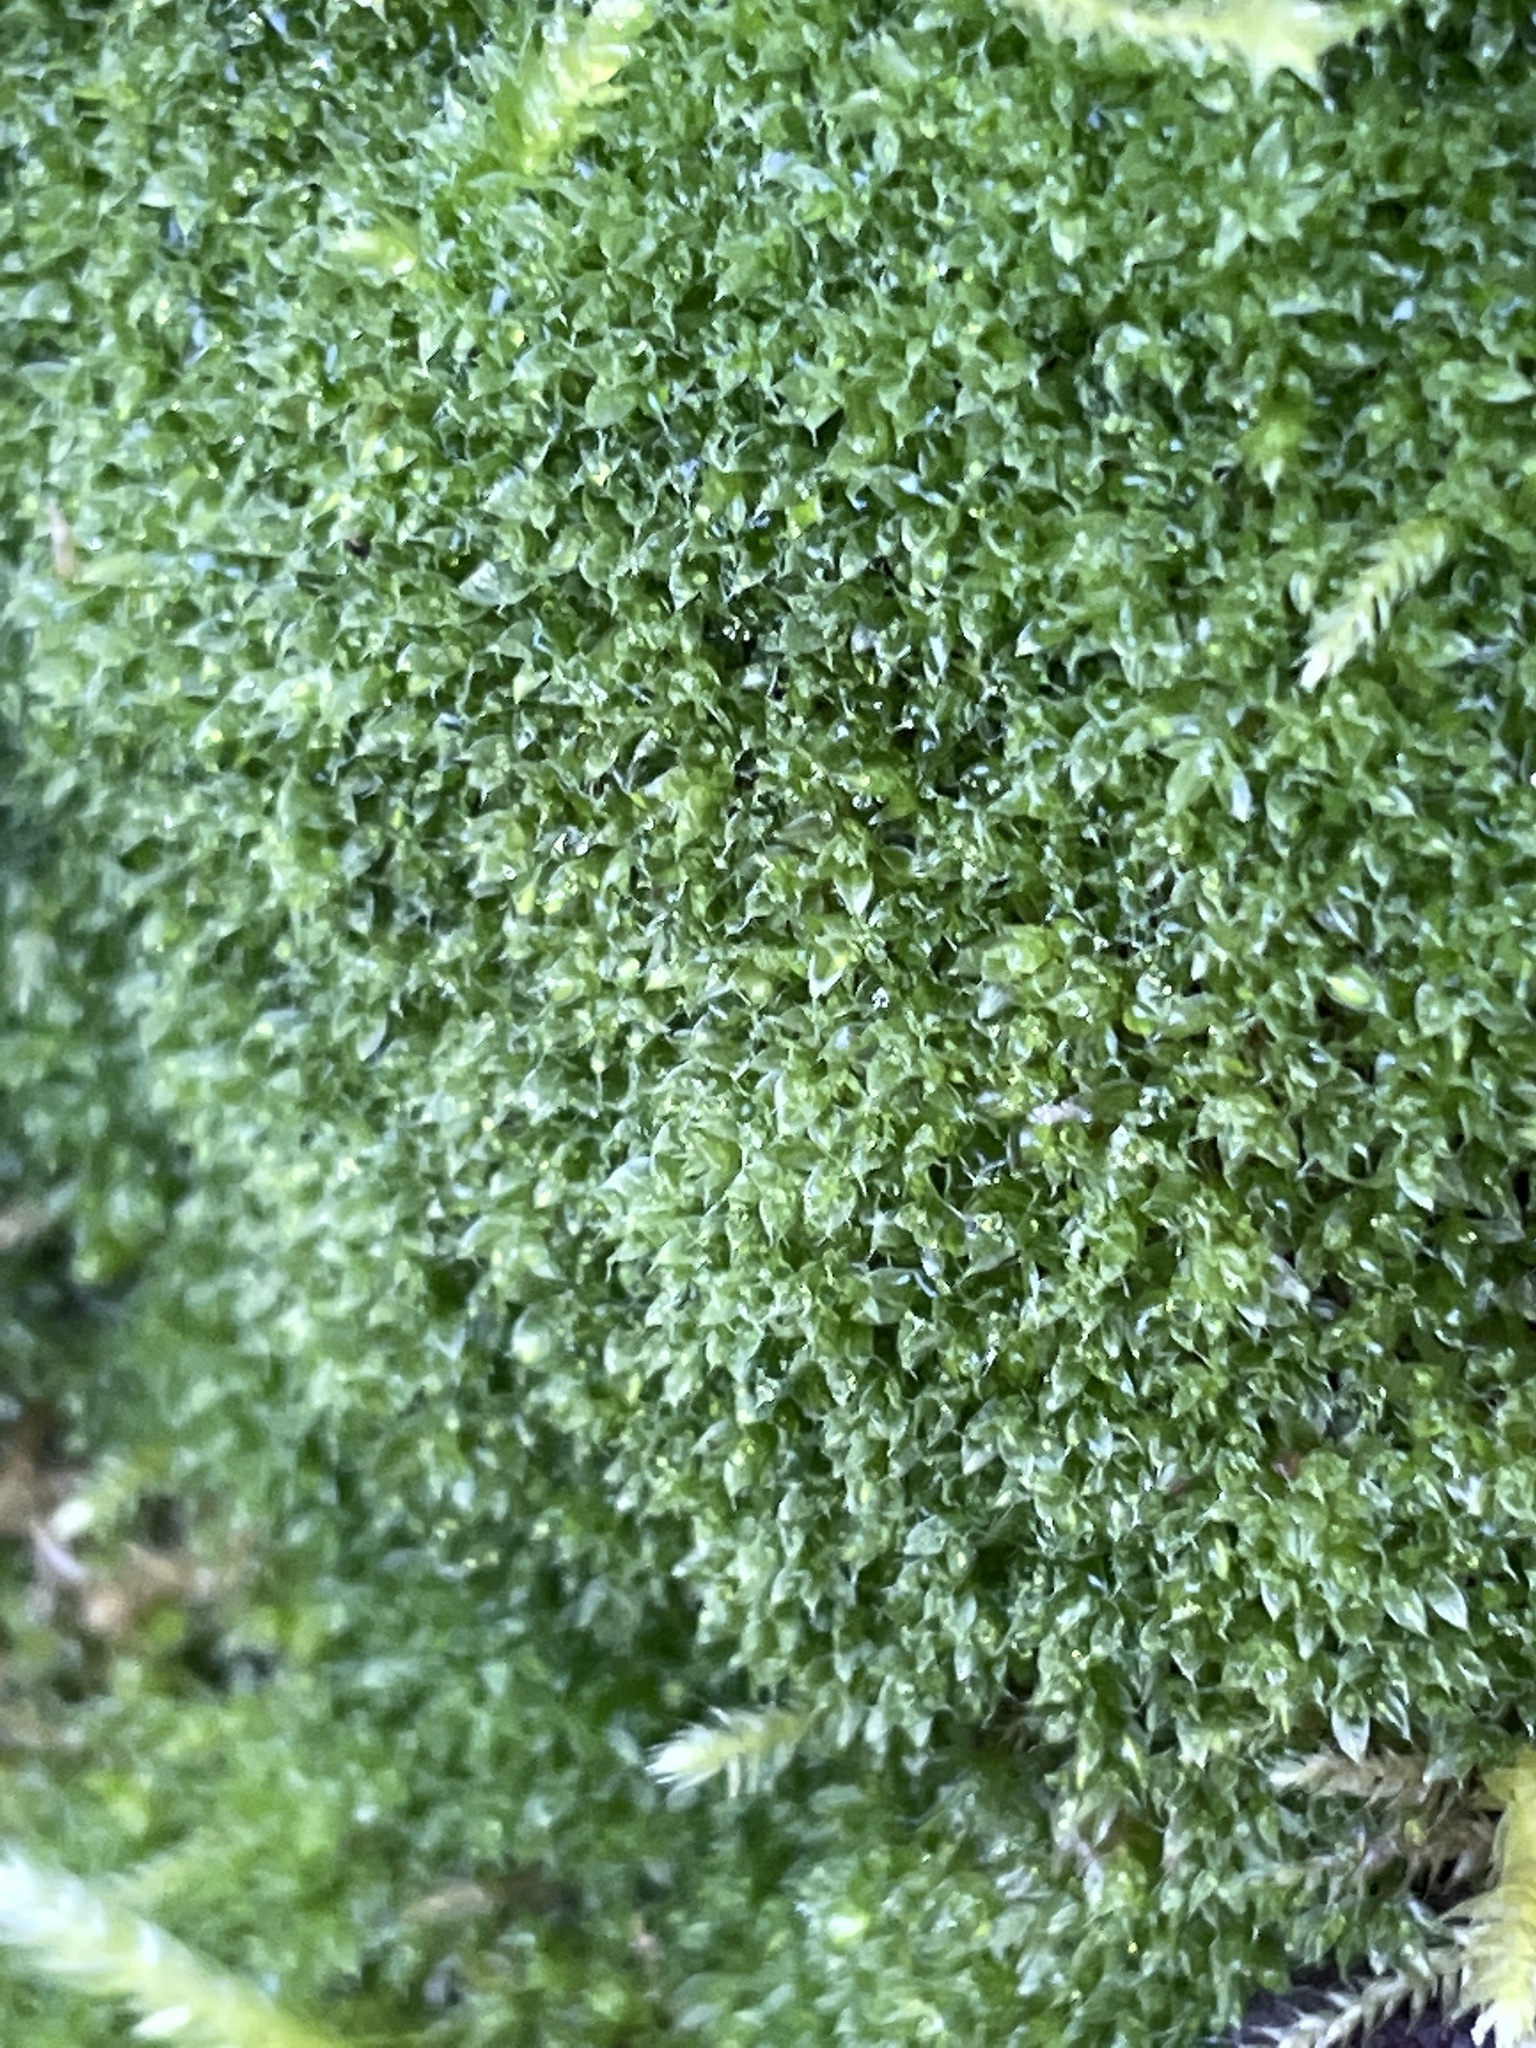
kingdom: Plantae
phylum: Bryophyta
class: Bryopsida
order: Bryales
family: Bryaceae
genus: Rosulabryum
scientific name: Rosulabryum capillare
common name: Capillary thread-moss
